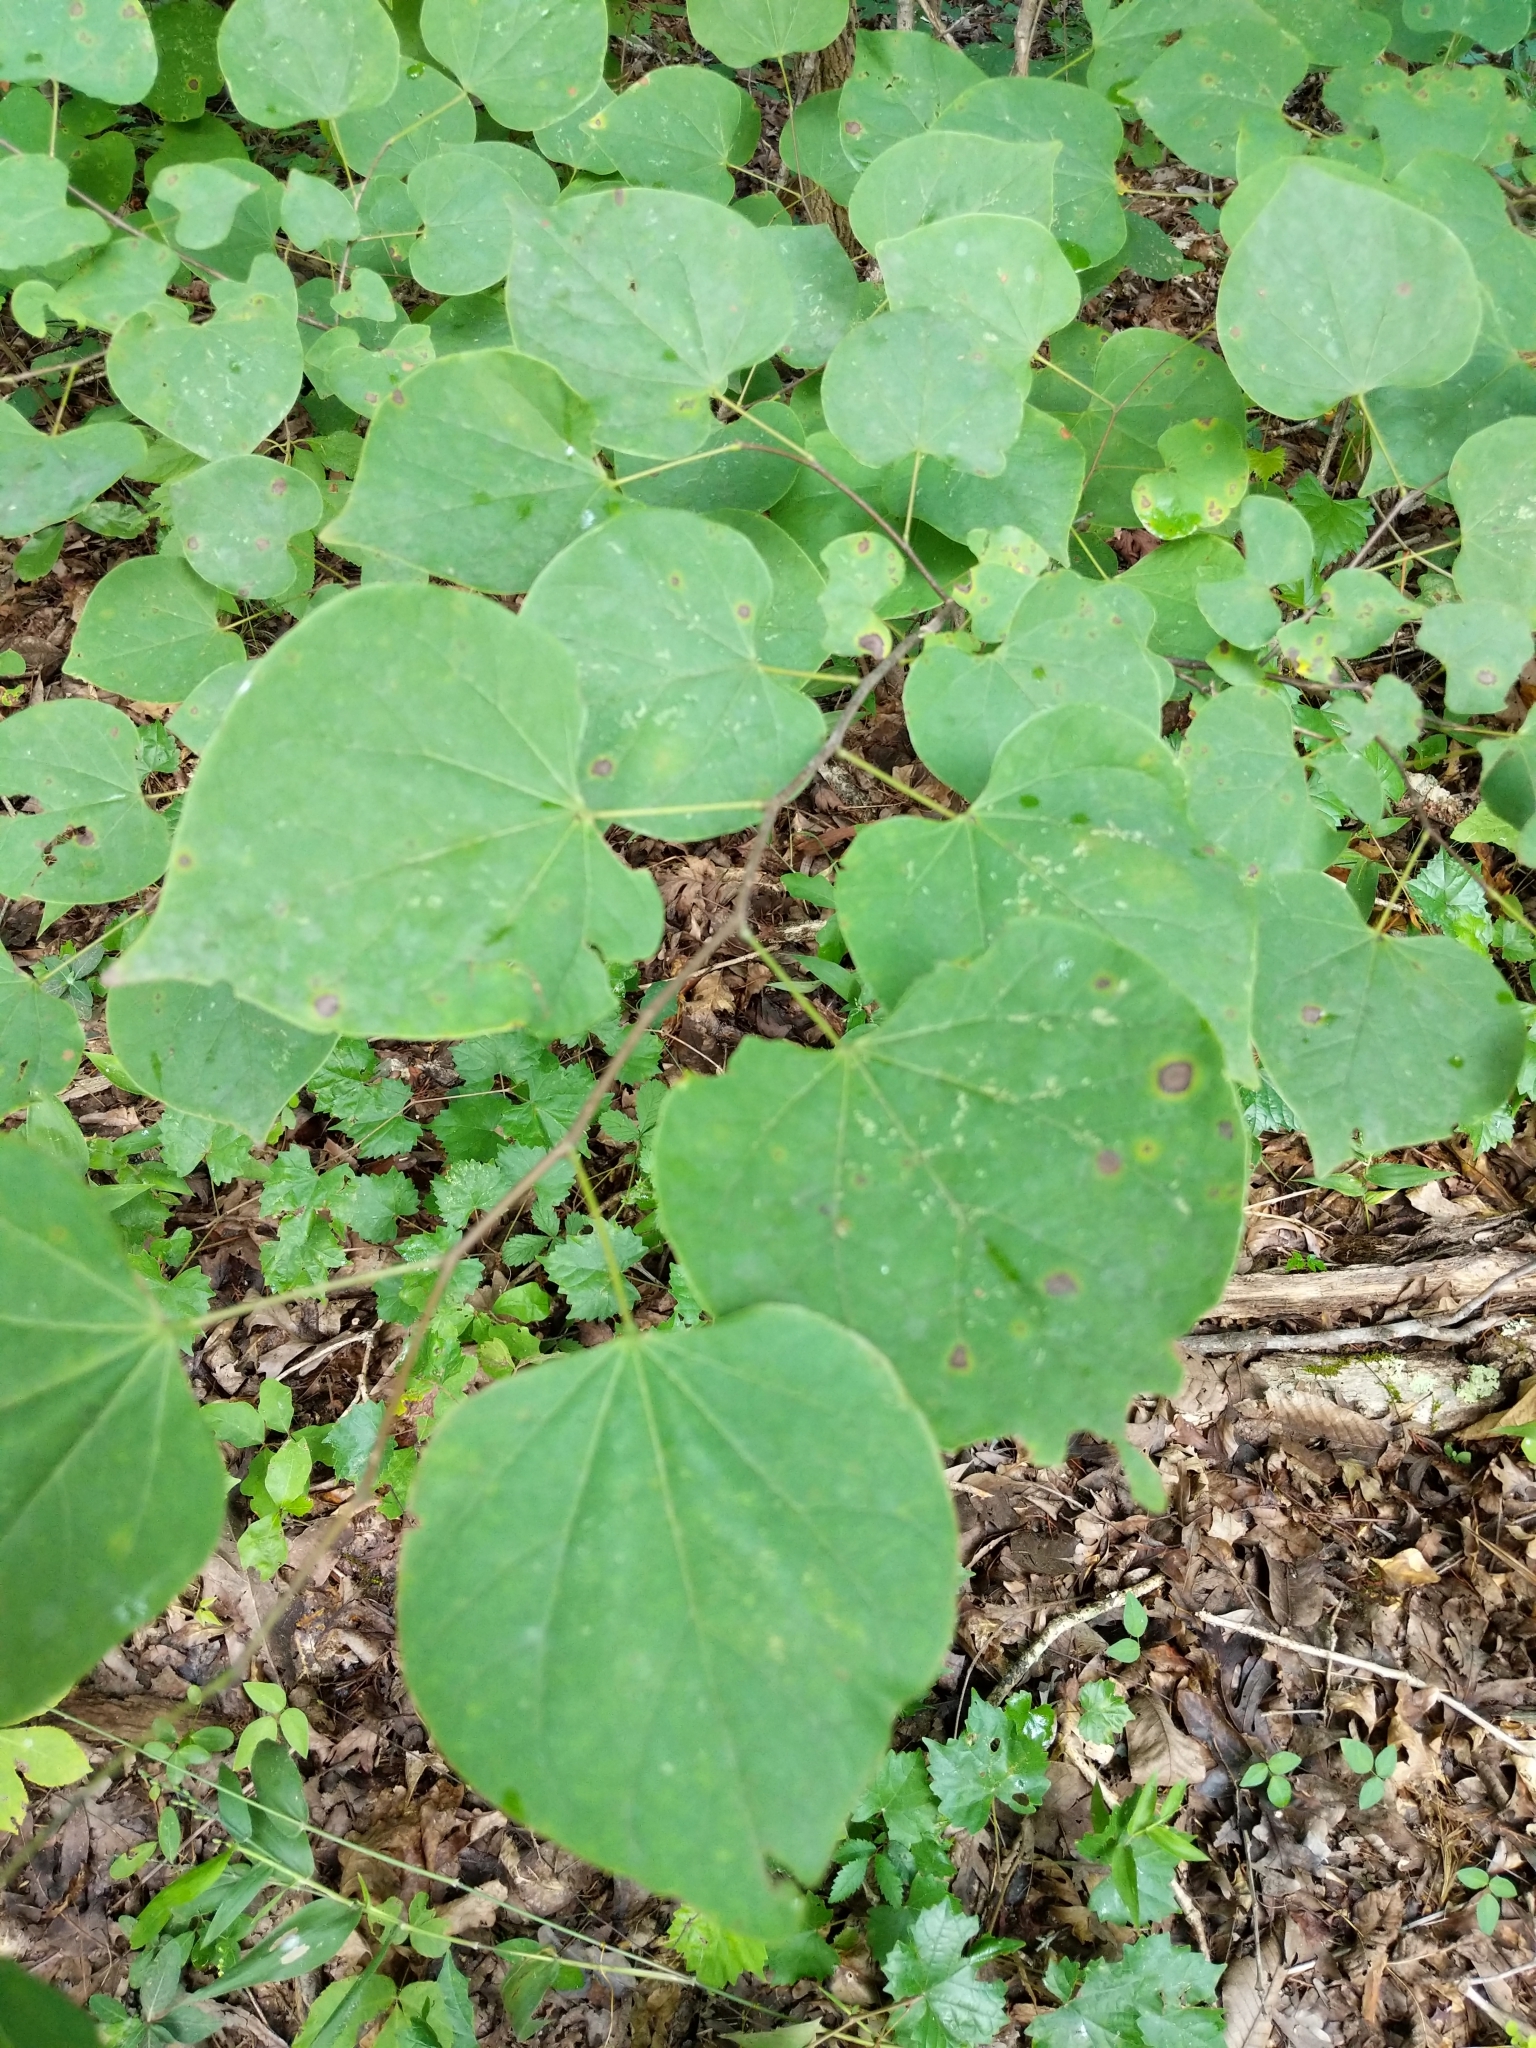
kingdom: Plantae
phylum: Tracheophyta
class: Magnoliopsida
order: Fabales
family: Fabaceae
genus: Cercis
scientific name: Cercis canadensis
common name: Eastern redbud
